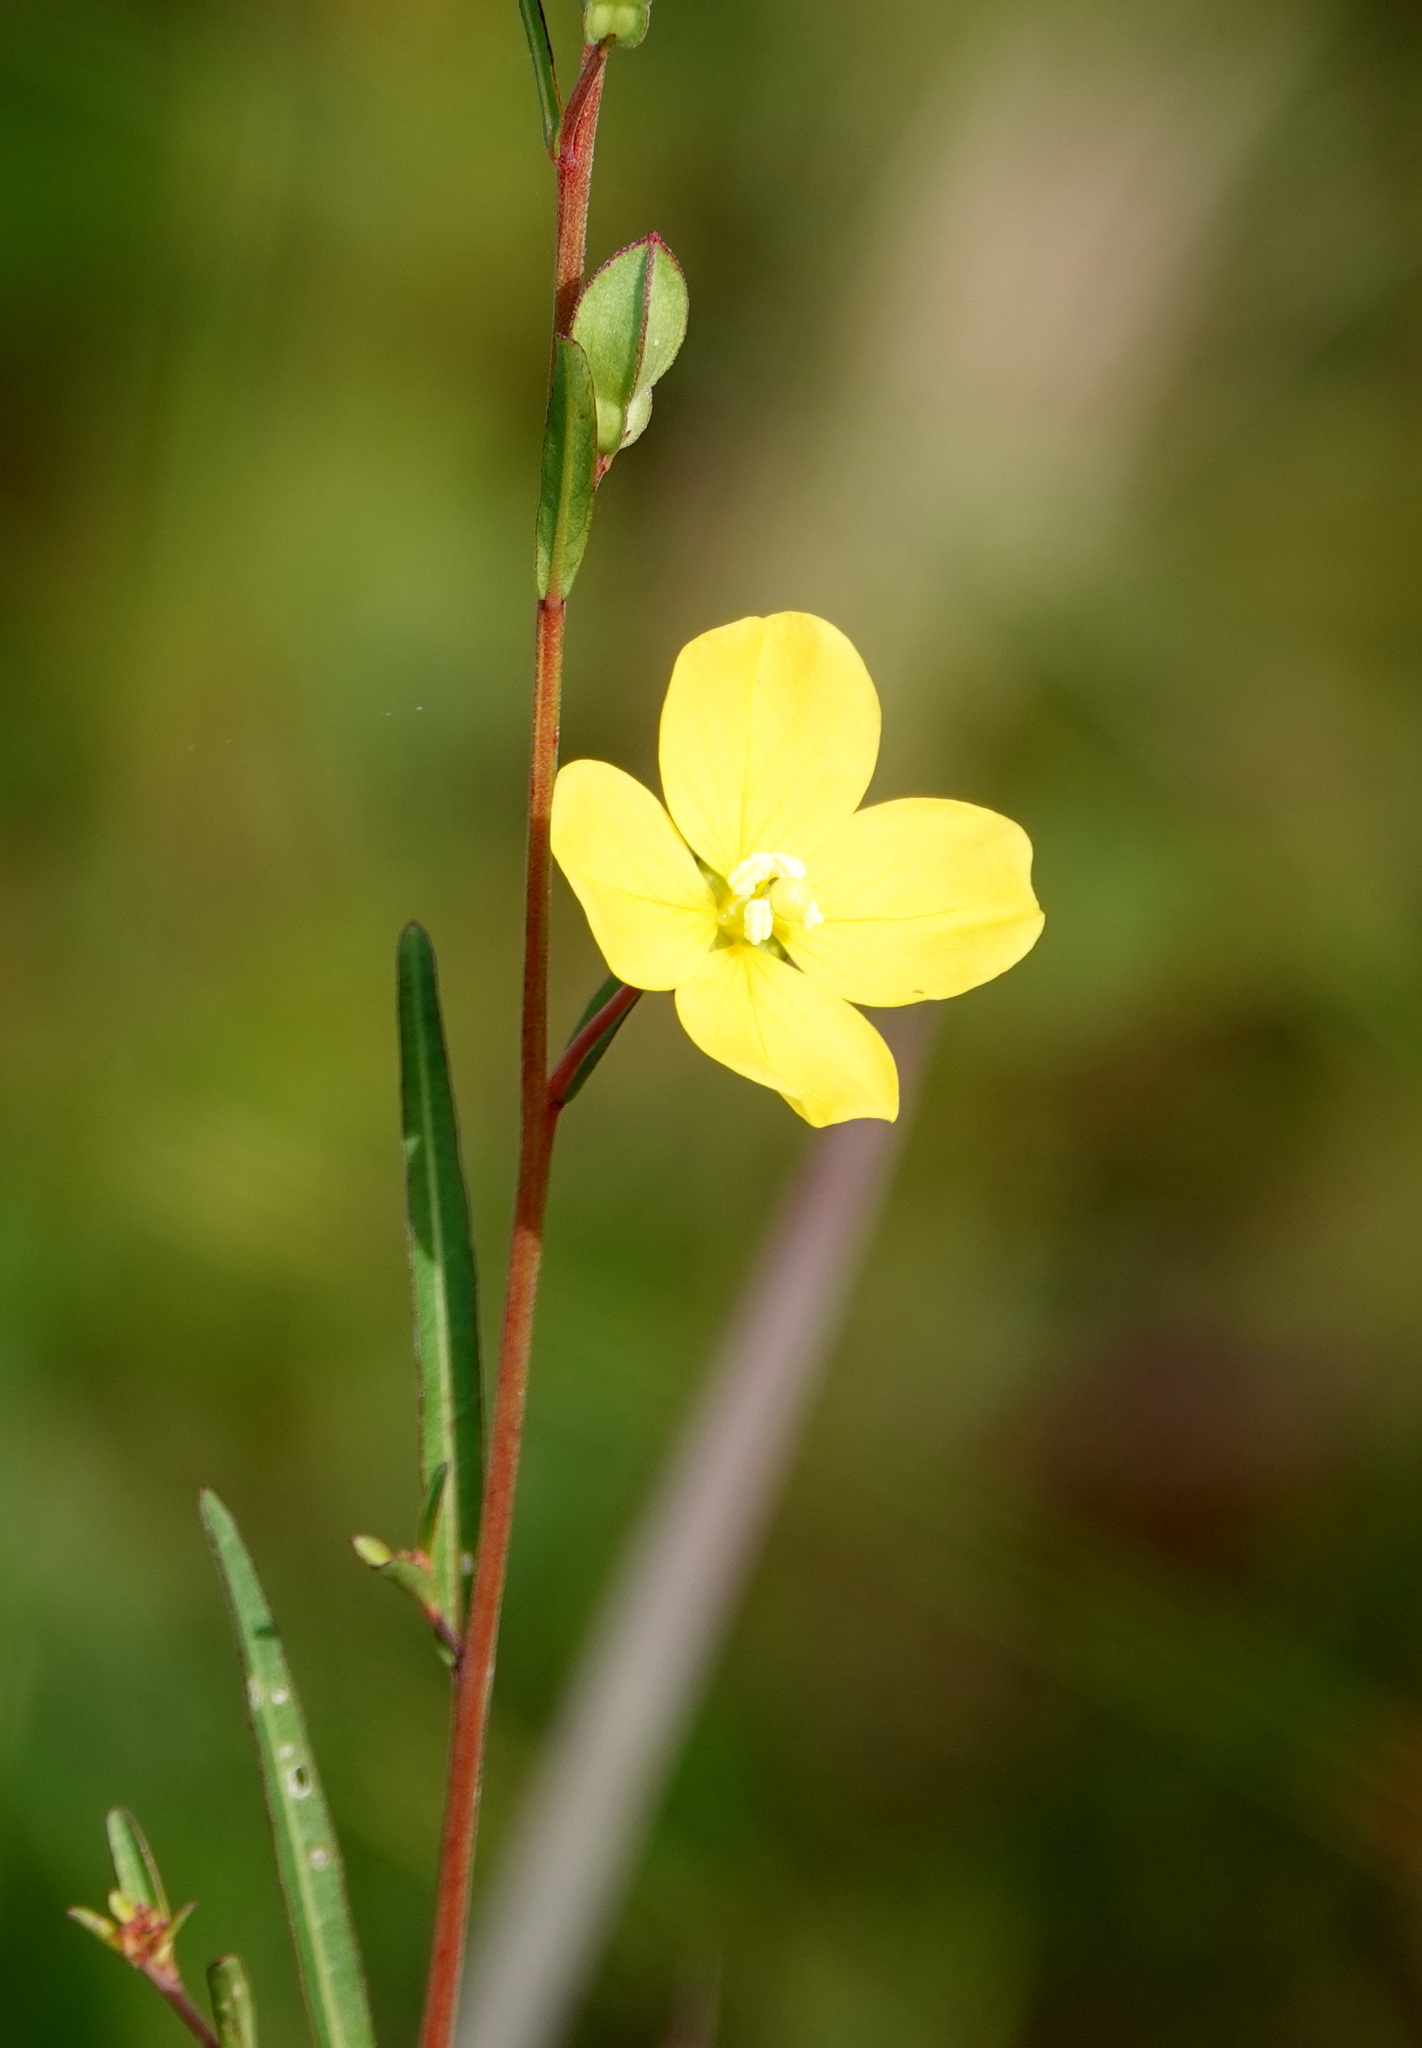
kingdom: Plantae
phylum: Tracheophyta
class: Magnoliopsida
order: Myrtales
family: Onagraceae
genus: Ludwigia
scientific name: Ludwigia maritima
